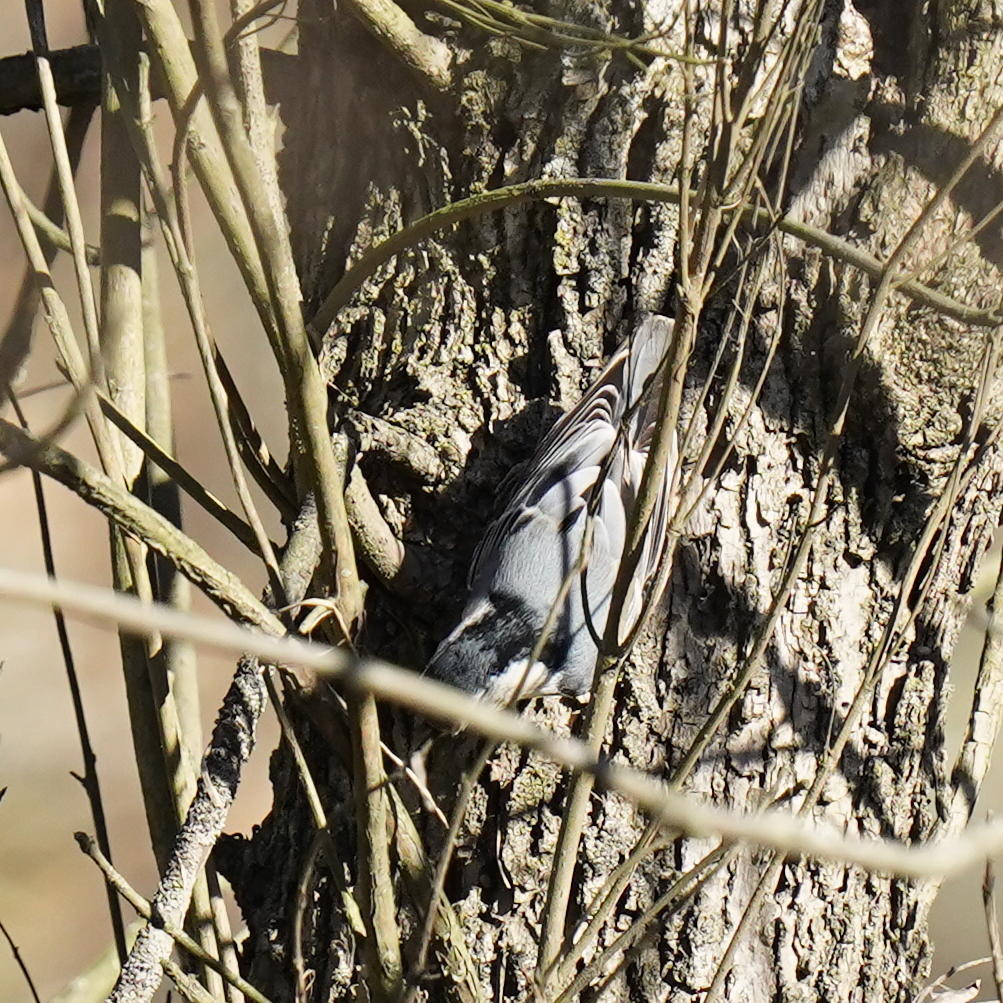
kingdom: Animalia
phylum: Chordata
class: Aves
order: Passeriformes
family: Sittidae
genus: Sitta
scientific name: Sitta carolinensis
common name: White-breasted nuthatch
